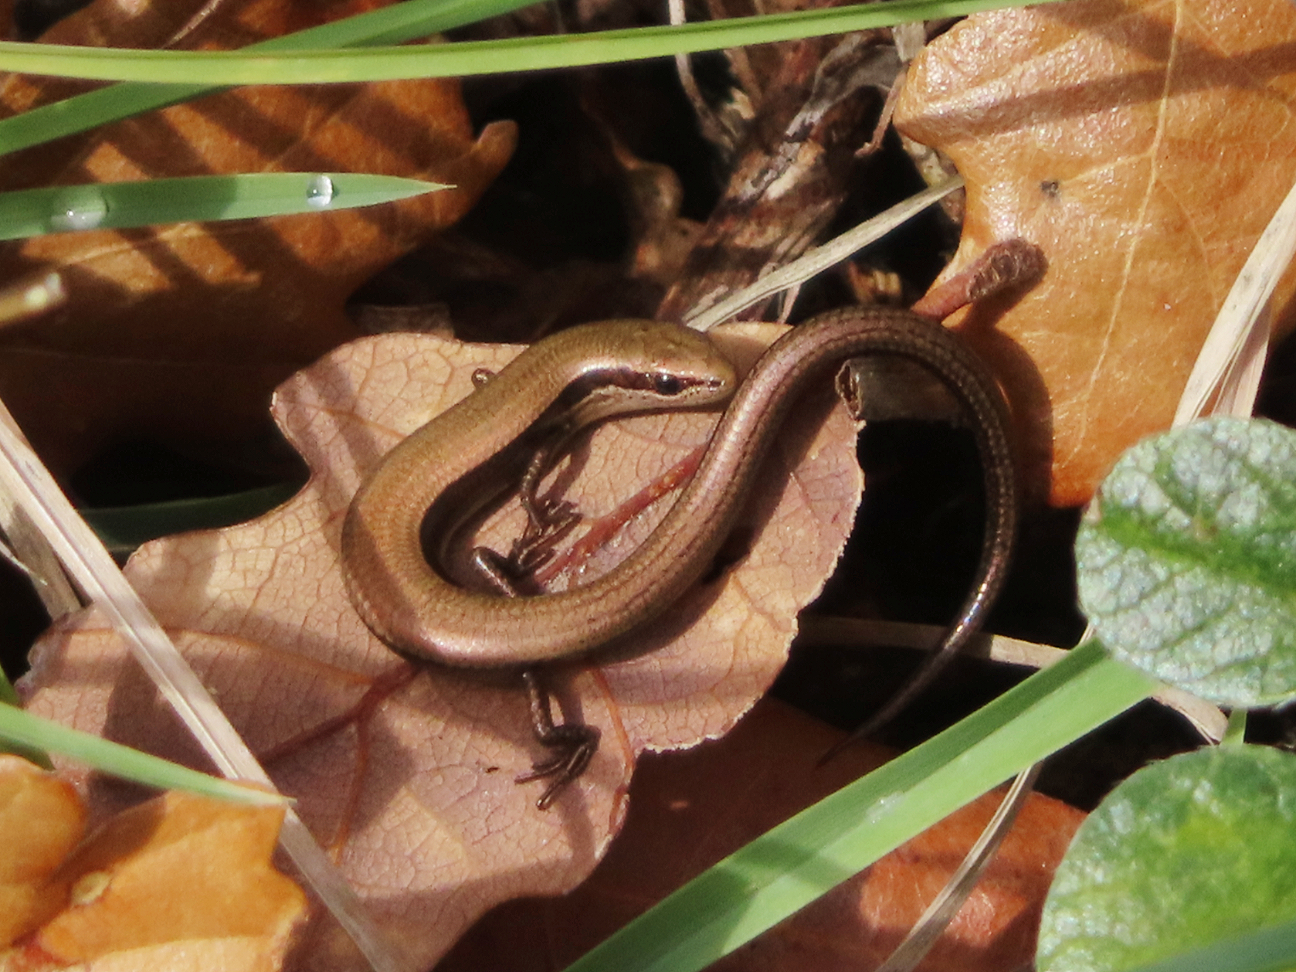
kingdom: Animalia
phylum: Chordata
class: Squamata
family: Scincidae
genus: Ablepharus
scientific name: Ablepharus kitaibelii
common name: Juniper skink
